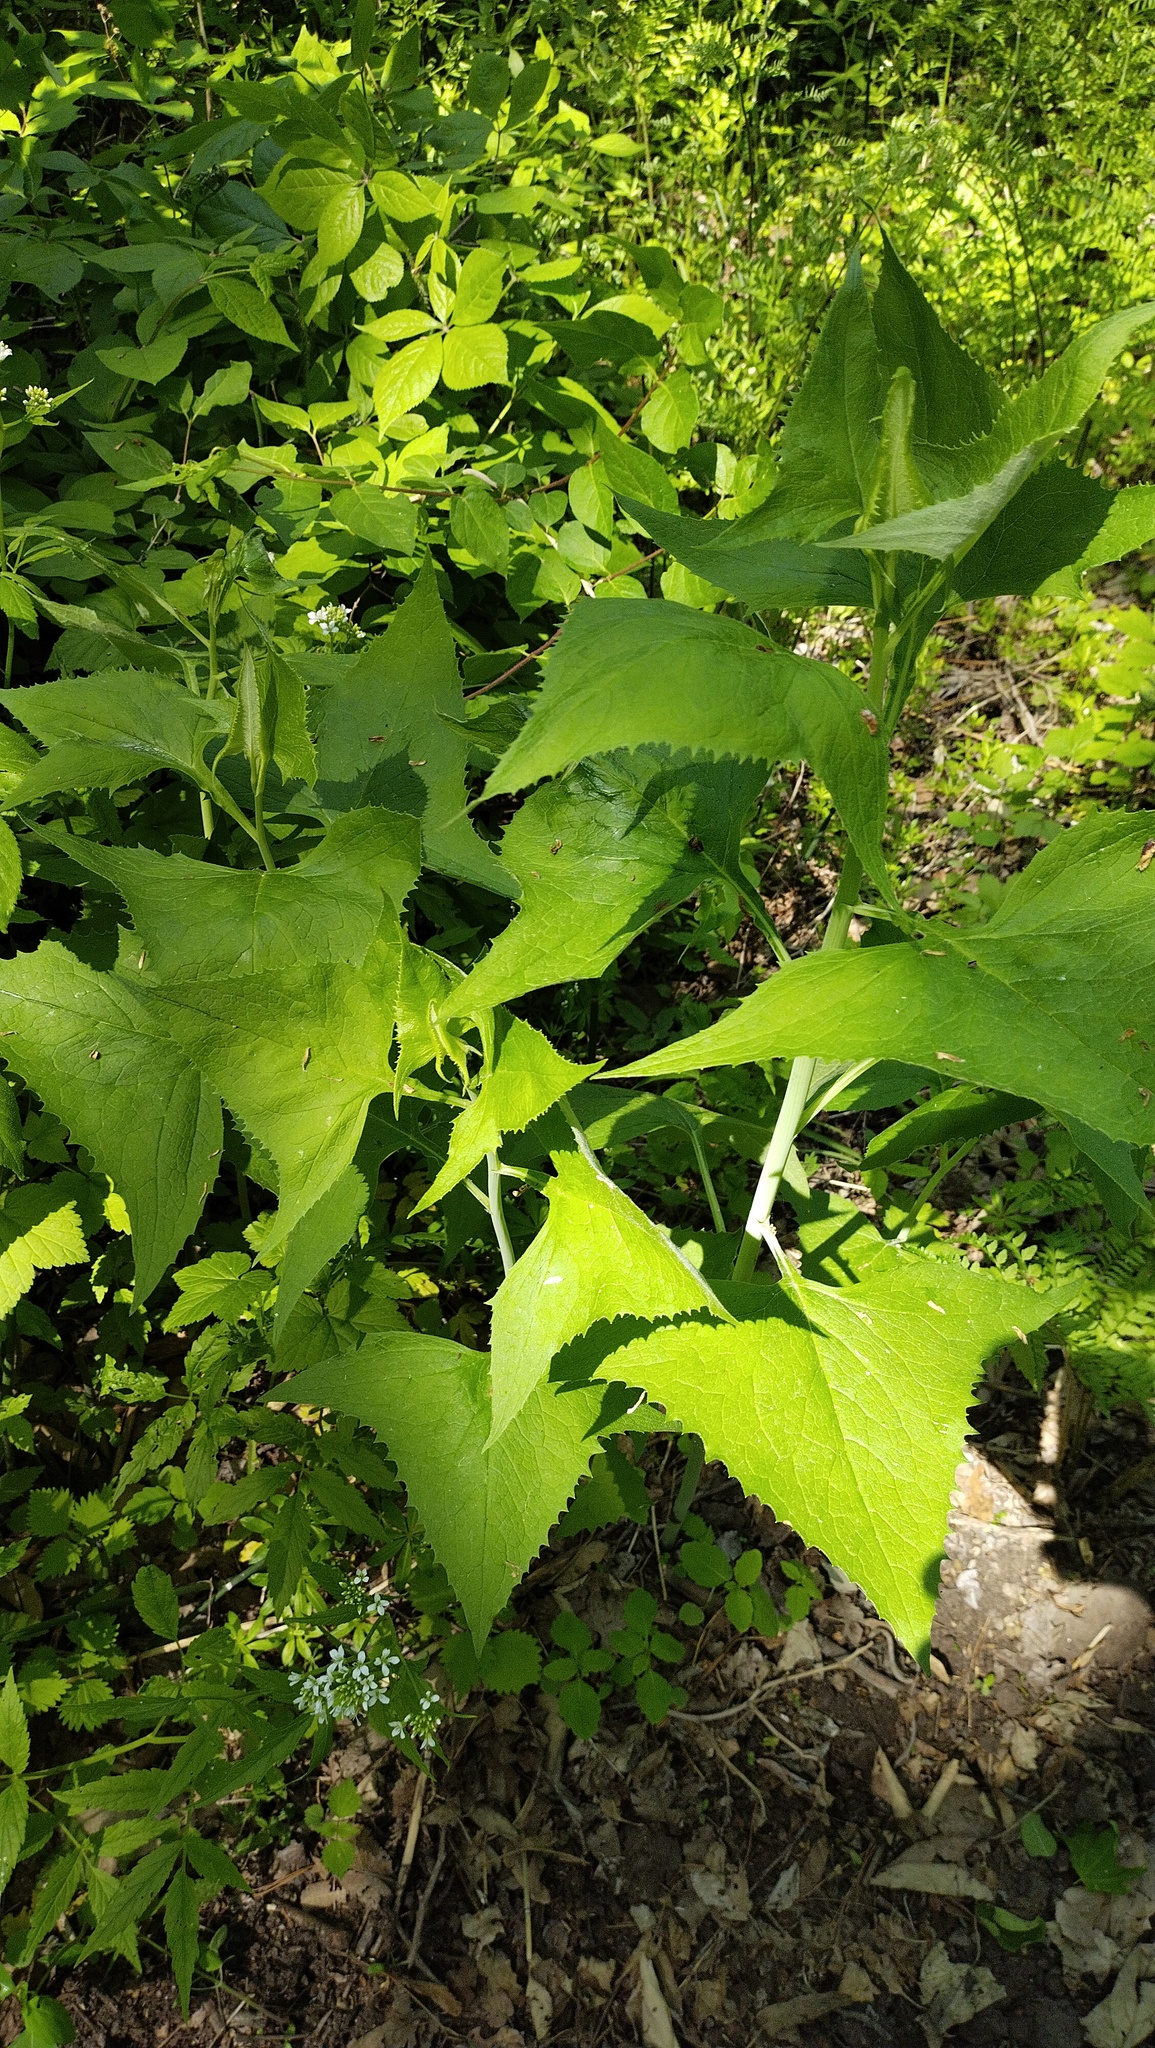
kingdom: Plantae
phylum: Tracheophyta
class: Magnoliopsida
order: Asterales
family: Asteraceae
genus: Parasenecio
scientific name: Parasenecio hastatus
